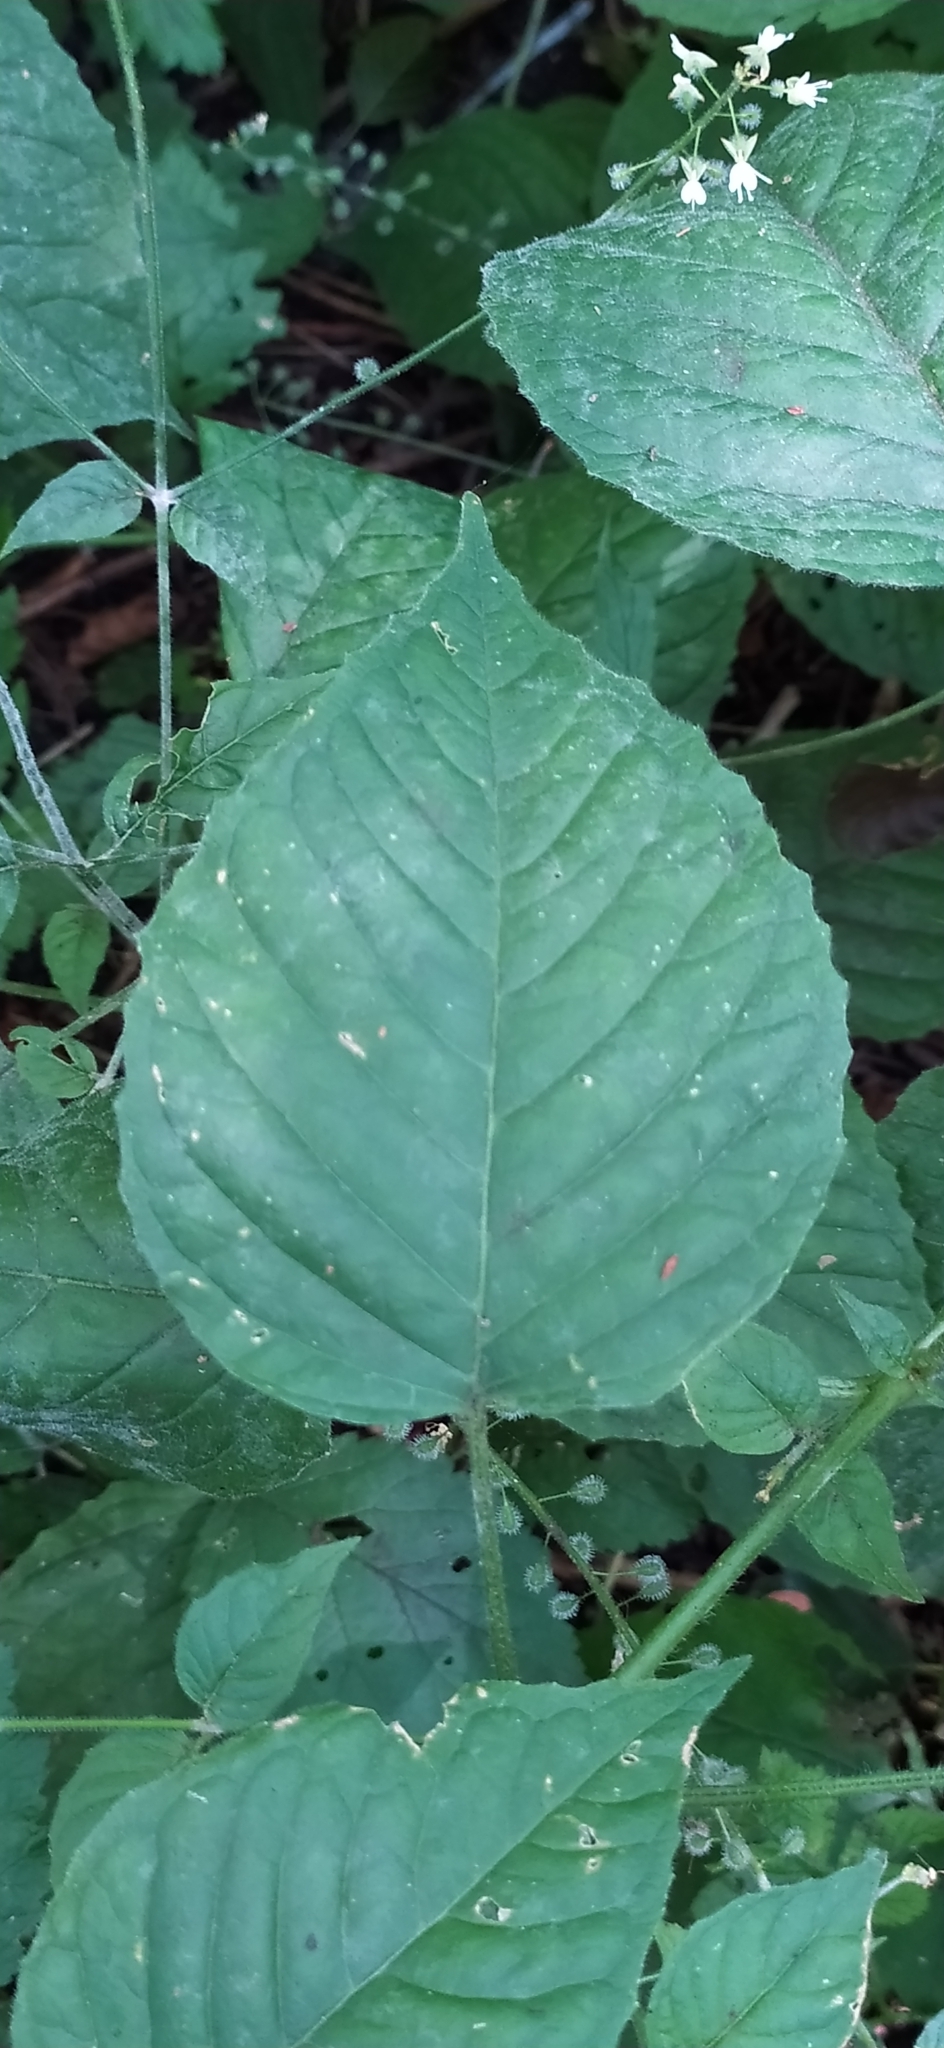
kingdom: Plantae
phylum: Tracheophyta
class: Magnoliopsida
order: Myrtales
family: Onagraceae
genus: Circaea
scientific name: Circaea lutetiana
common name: Enchanter's-nightshade
